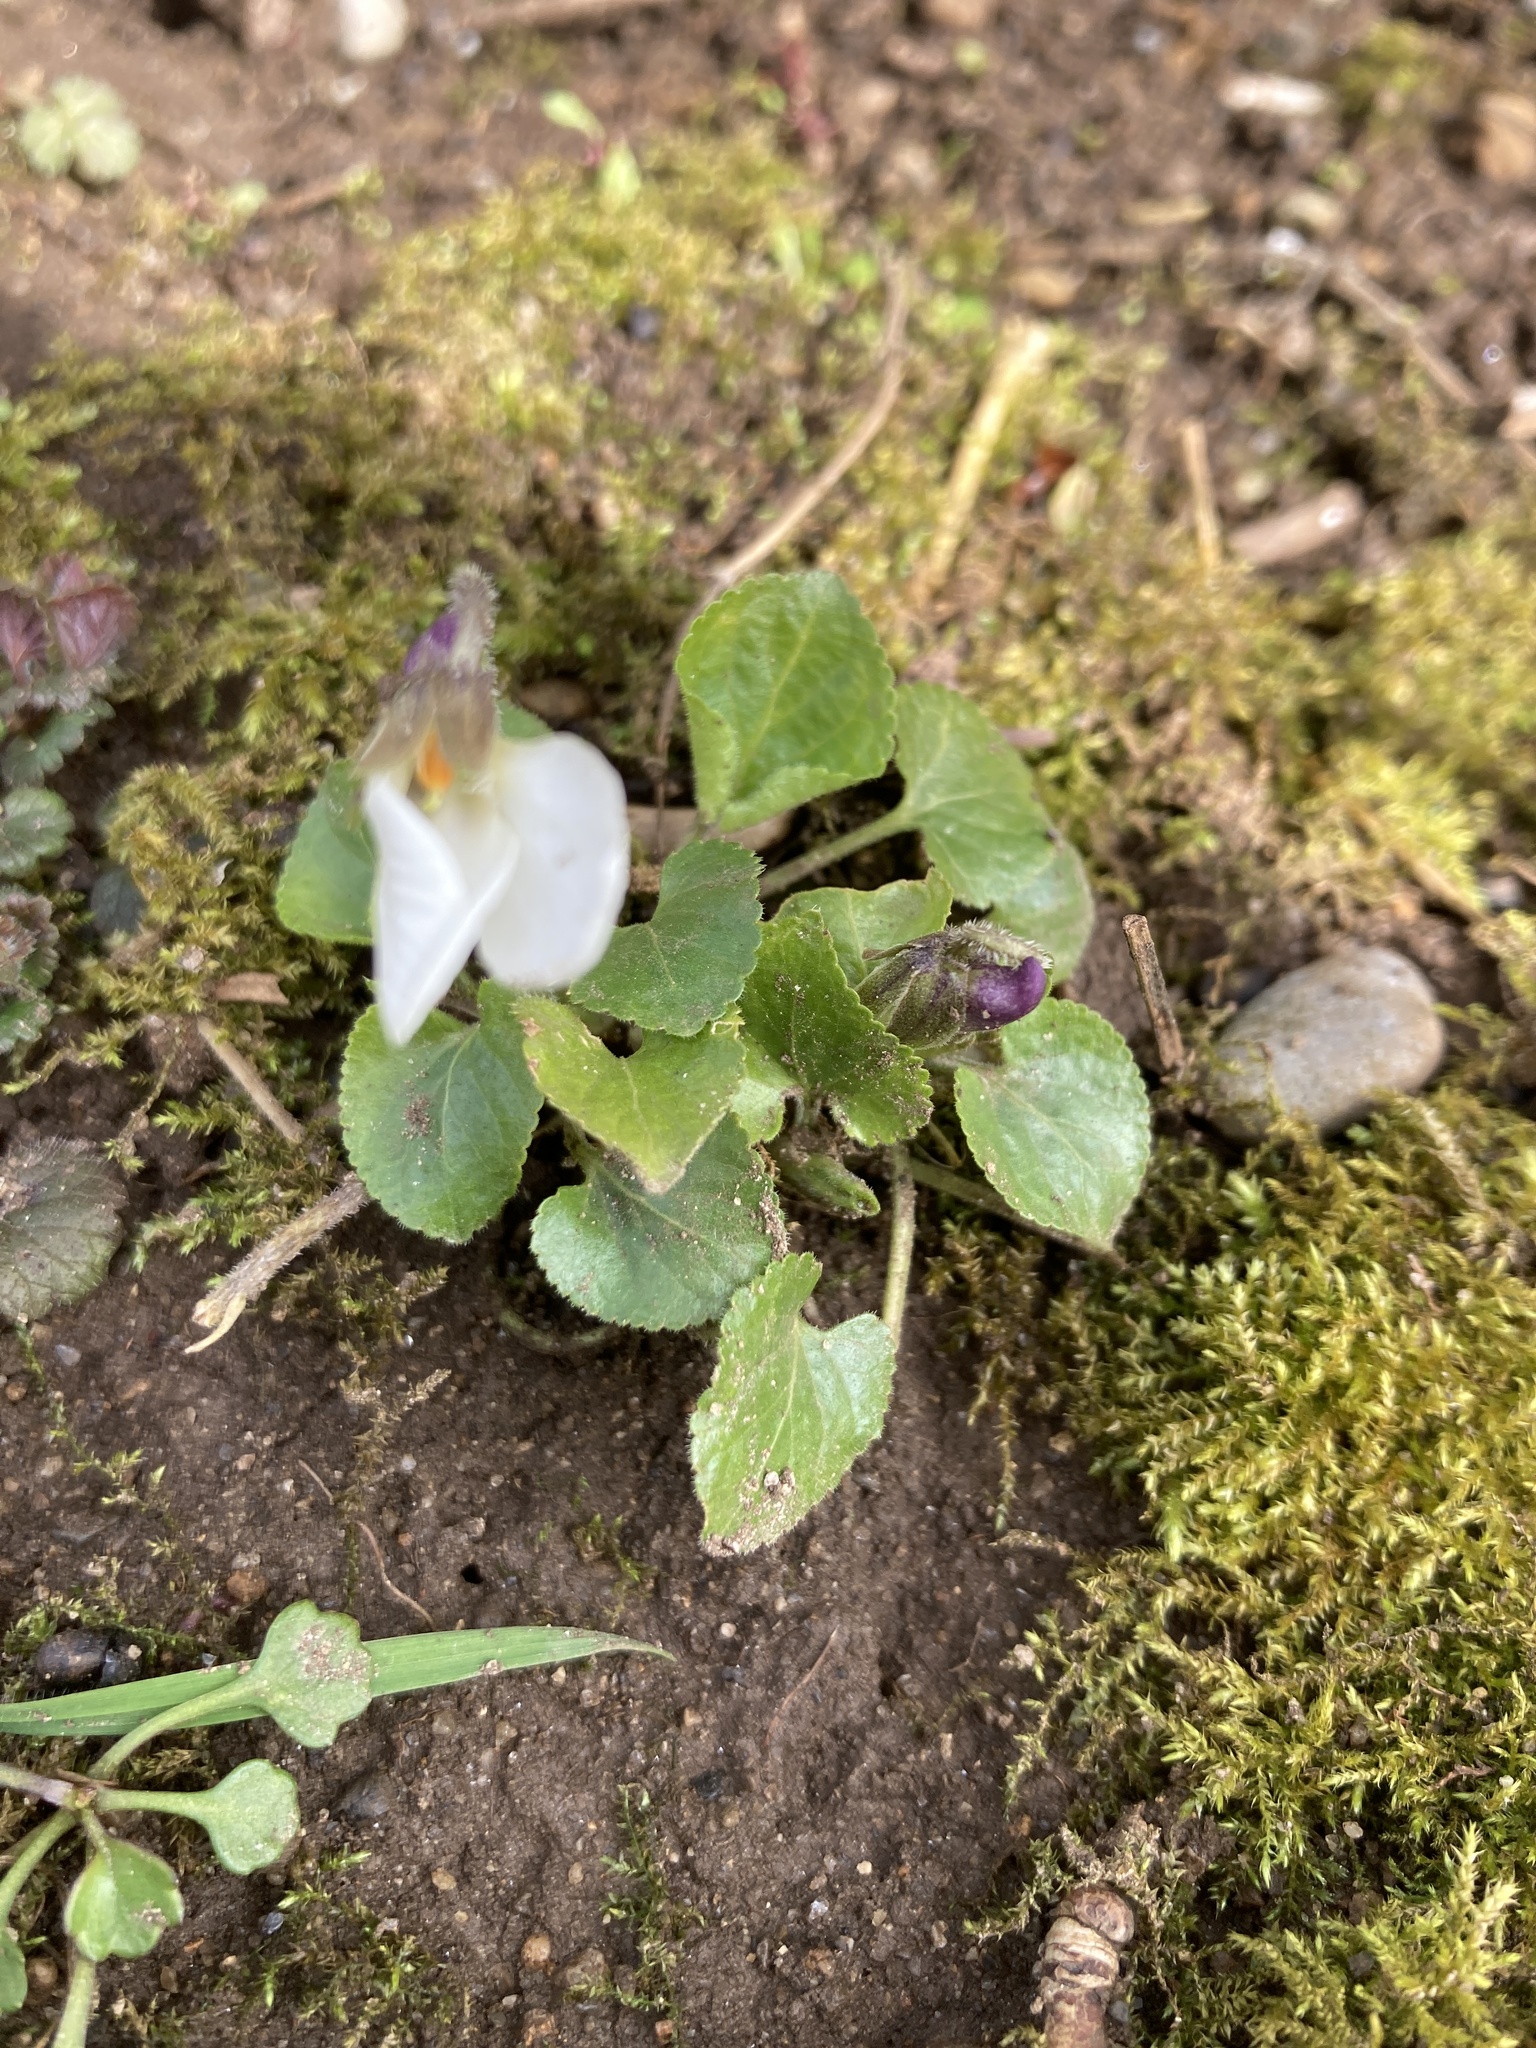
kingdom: Plantae
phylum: Tracheophyta
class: Magnoliopsida
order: Malpighiales
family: Violaceae
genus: Viola
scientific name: Viola odorata
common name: Sweet violet
